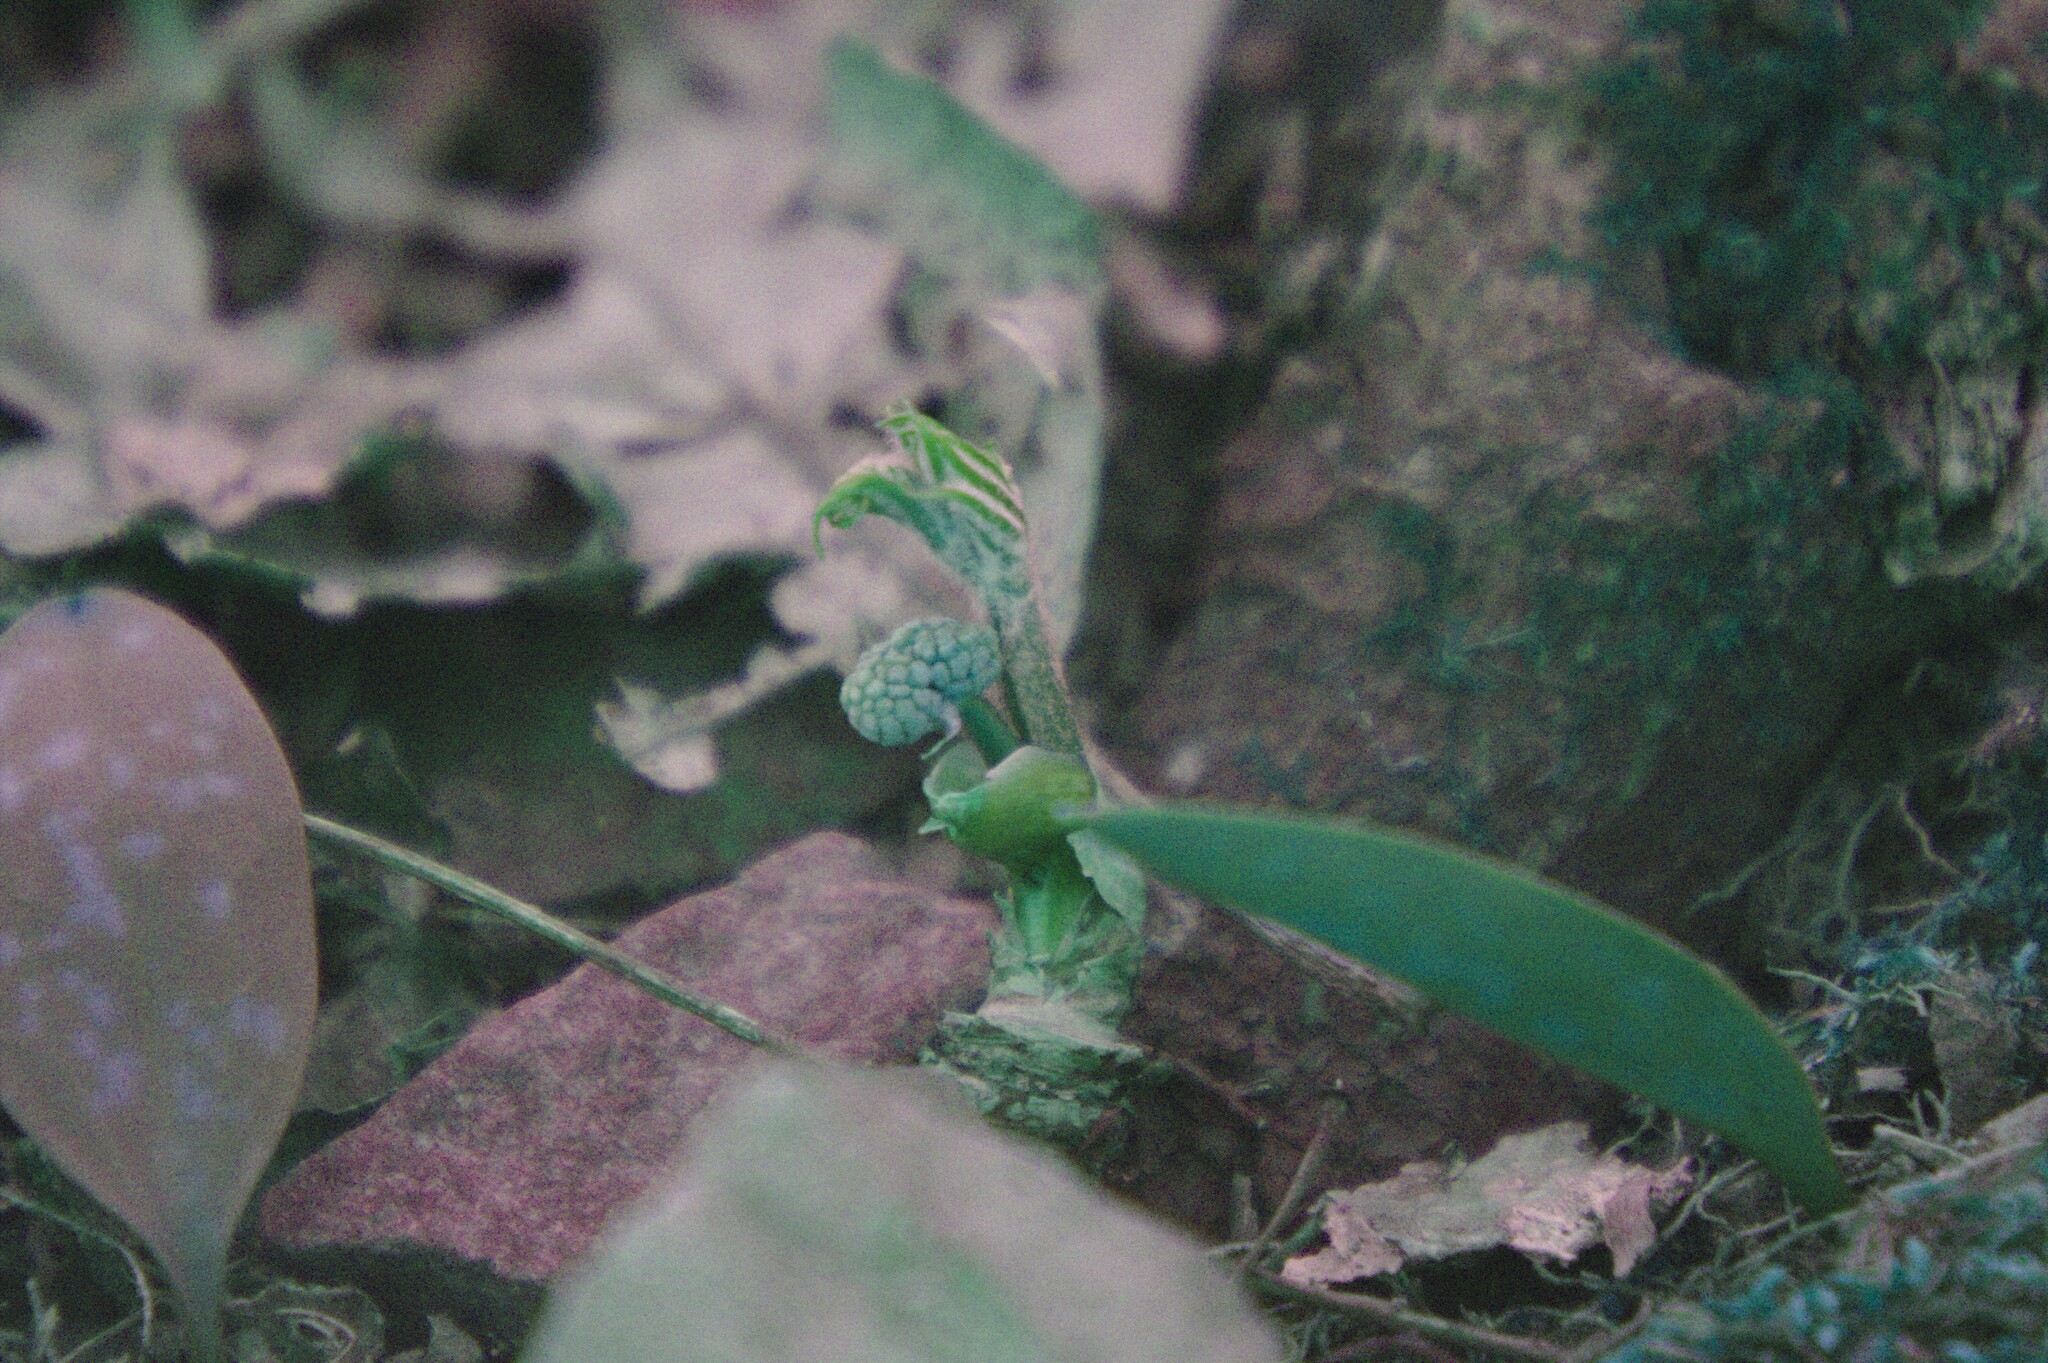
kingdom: Plantae
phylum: Tracheophyta
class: Magnoliopsida
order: Apiales
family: Araliaceae
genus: Aralia
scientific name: Aralia nudicaulis
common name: Wild sarsaparilla
